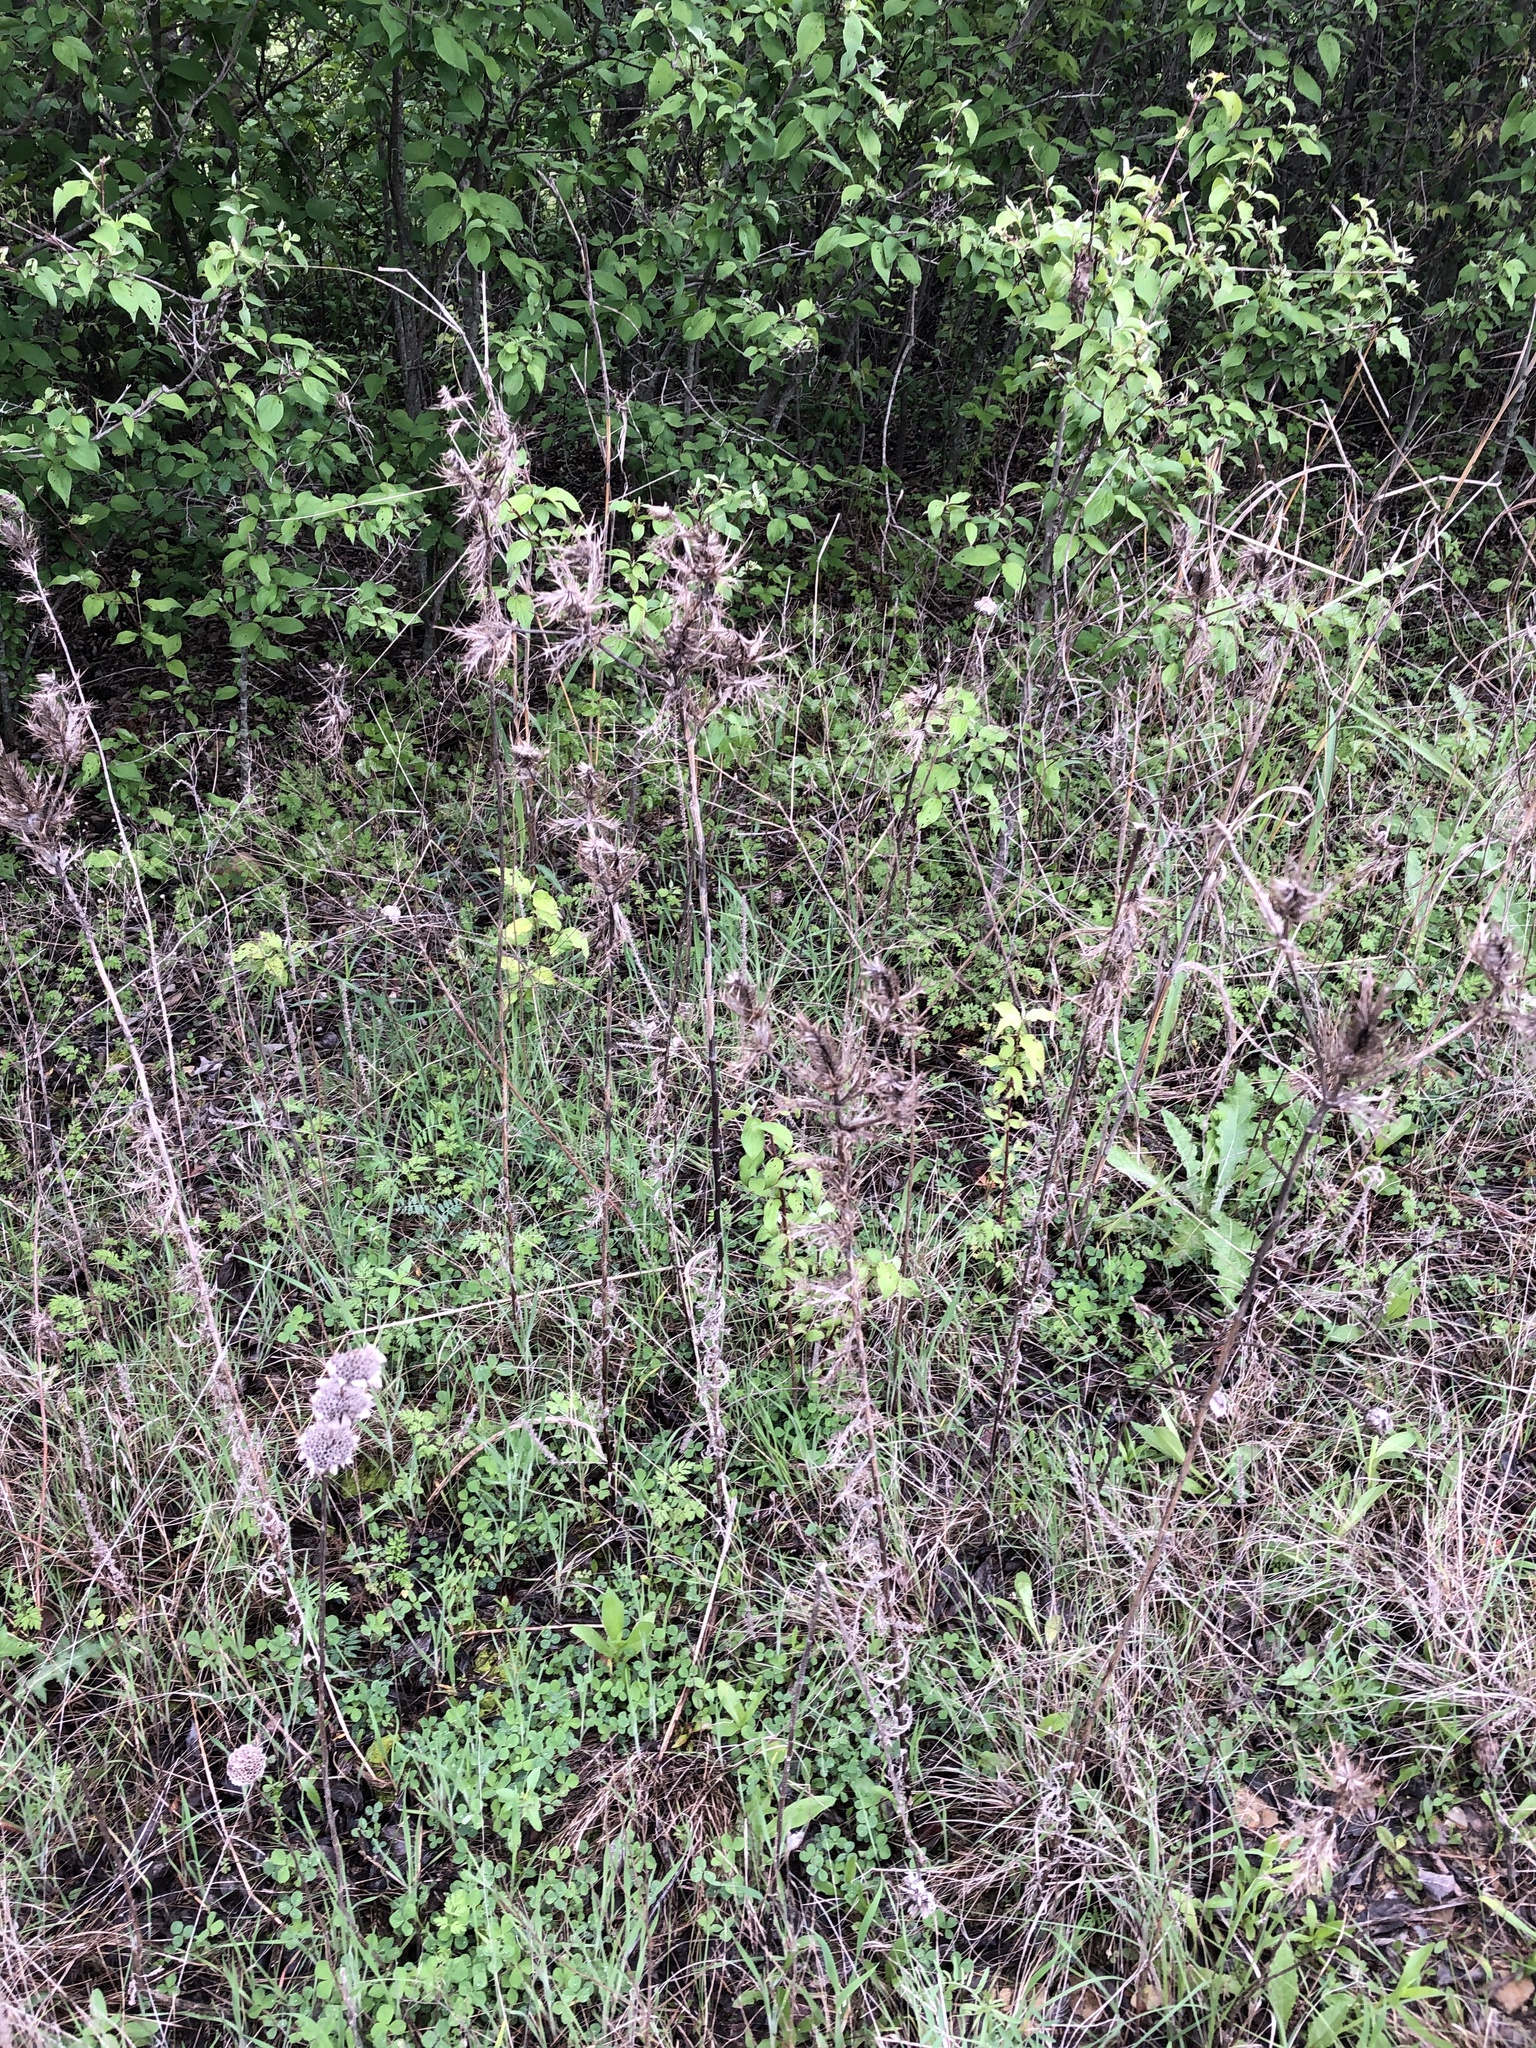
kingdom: Plantae
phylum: Tracheophyta
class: Magnoliopsida
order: Apiales
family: Apiaceae
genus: Eryngium
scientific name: Eryngium leavenworthii
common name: Leavenworth's eryngo
